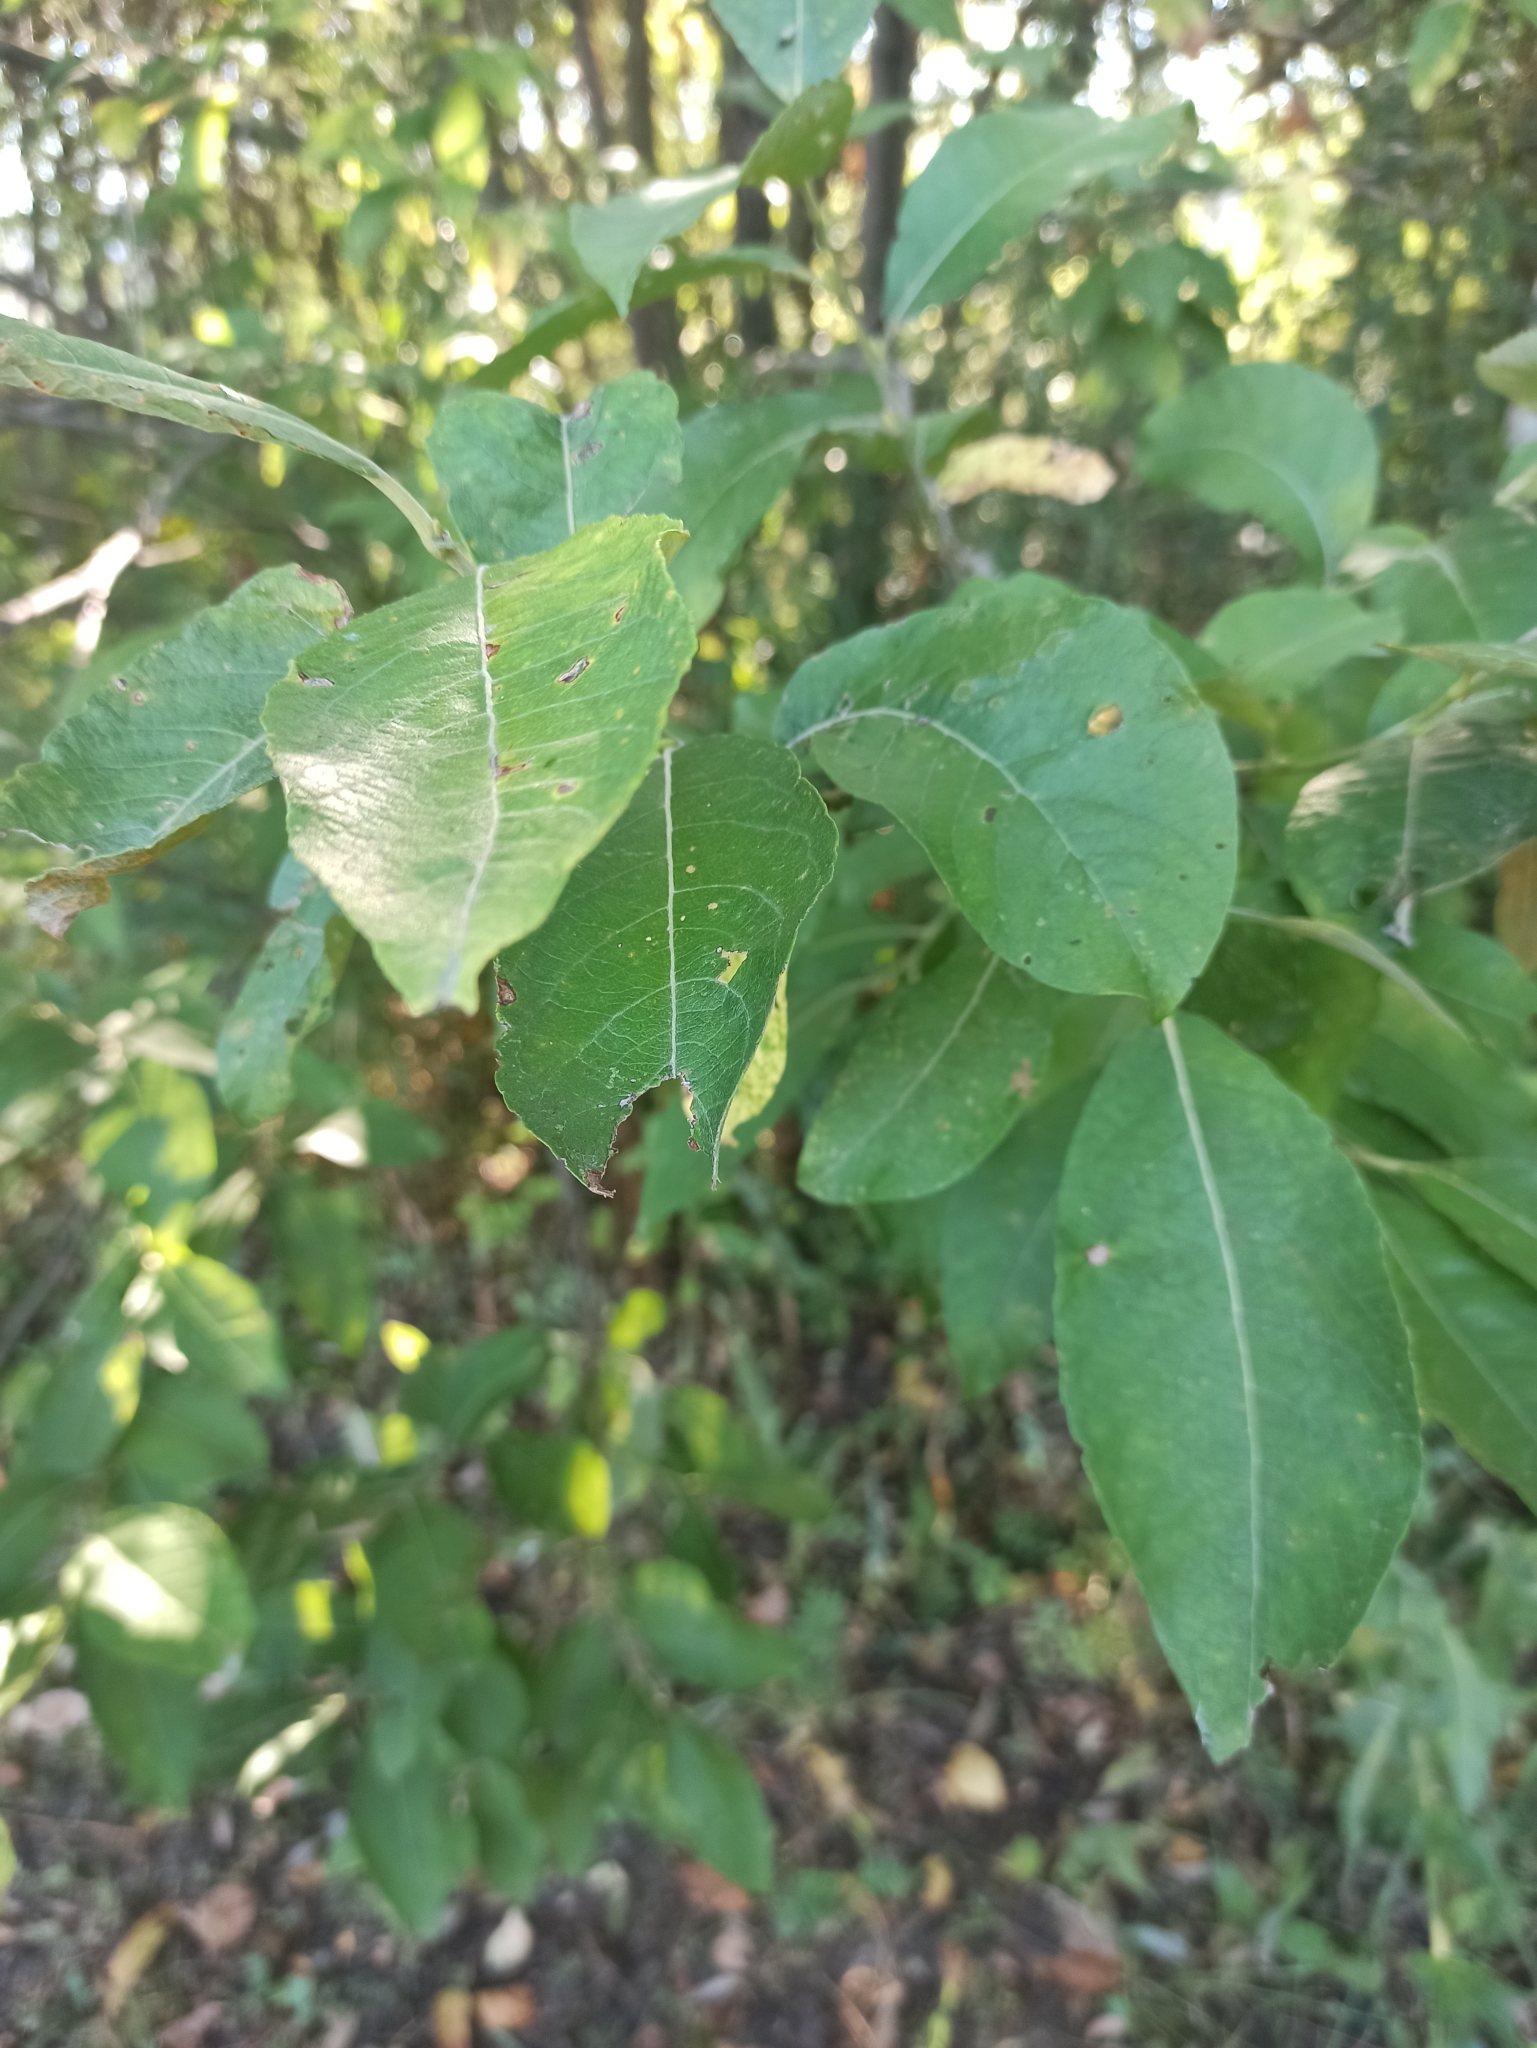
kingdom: Plantae
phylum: Tracheophyta
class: Magnoliopsida
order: Malpighiales
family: Salicaceae
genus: Salix
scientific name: Salix caprea
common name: Goat willow
